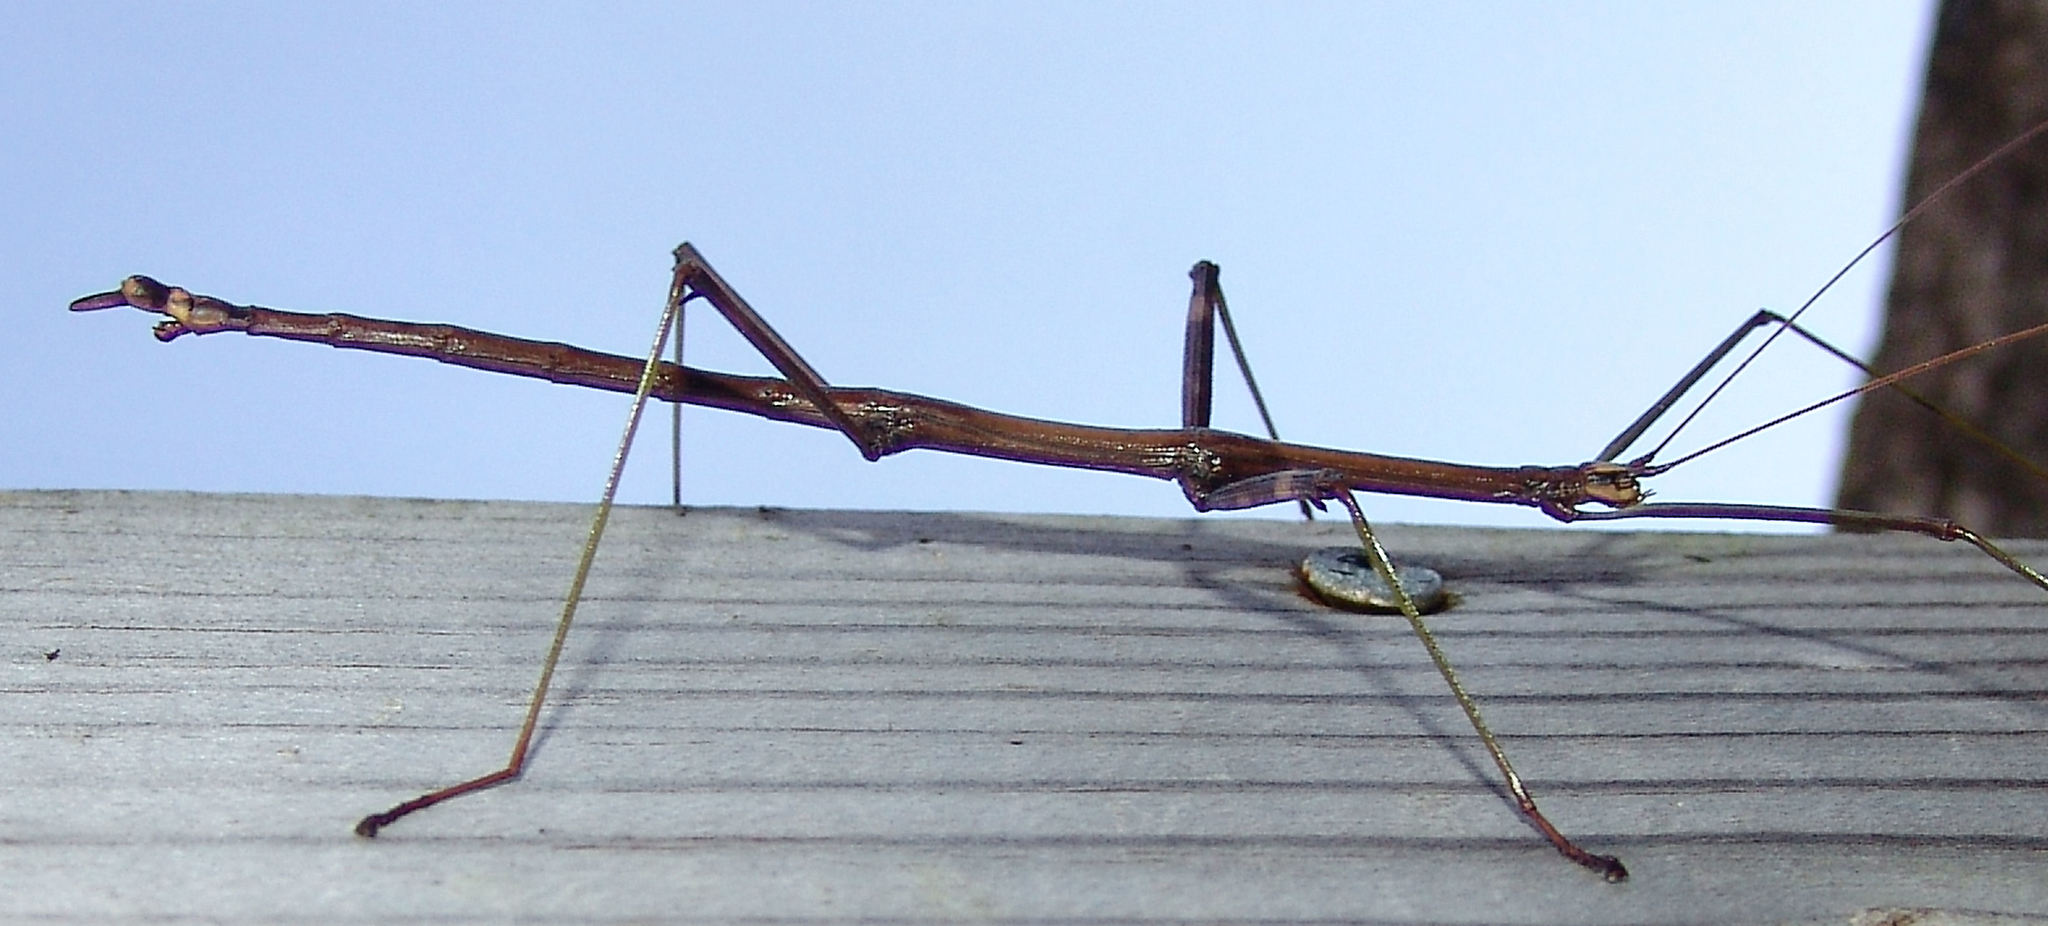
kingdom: Animalia
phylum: Arthropoda
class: Insecta
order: Phasmida
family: Diapheromeridae
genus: Diapheromera
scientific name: Diapheromera femorata
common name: Common american walkingstick
